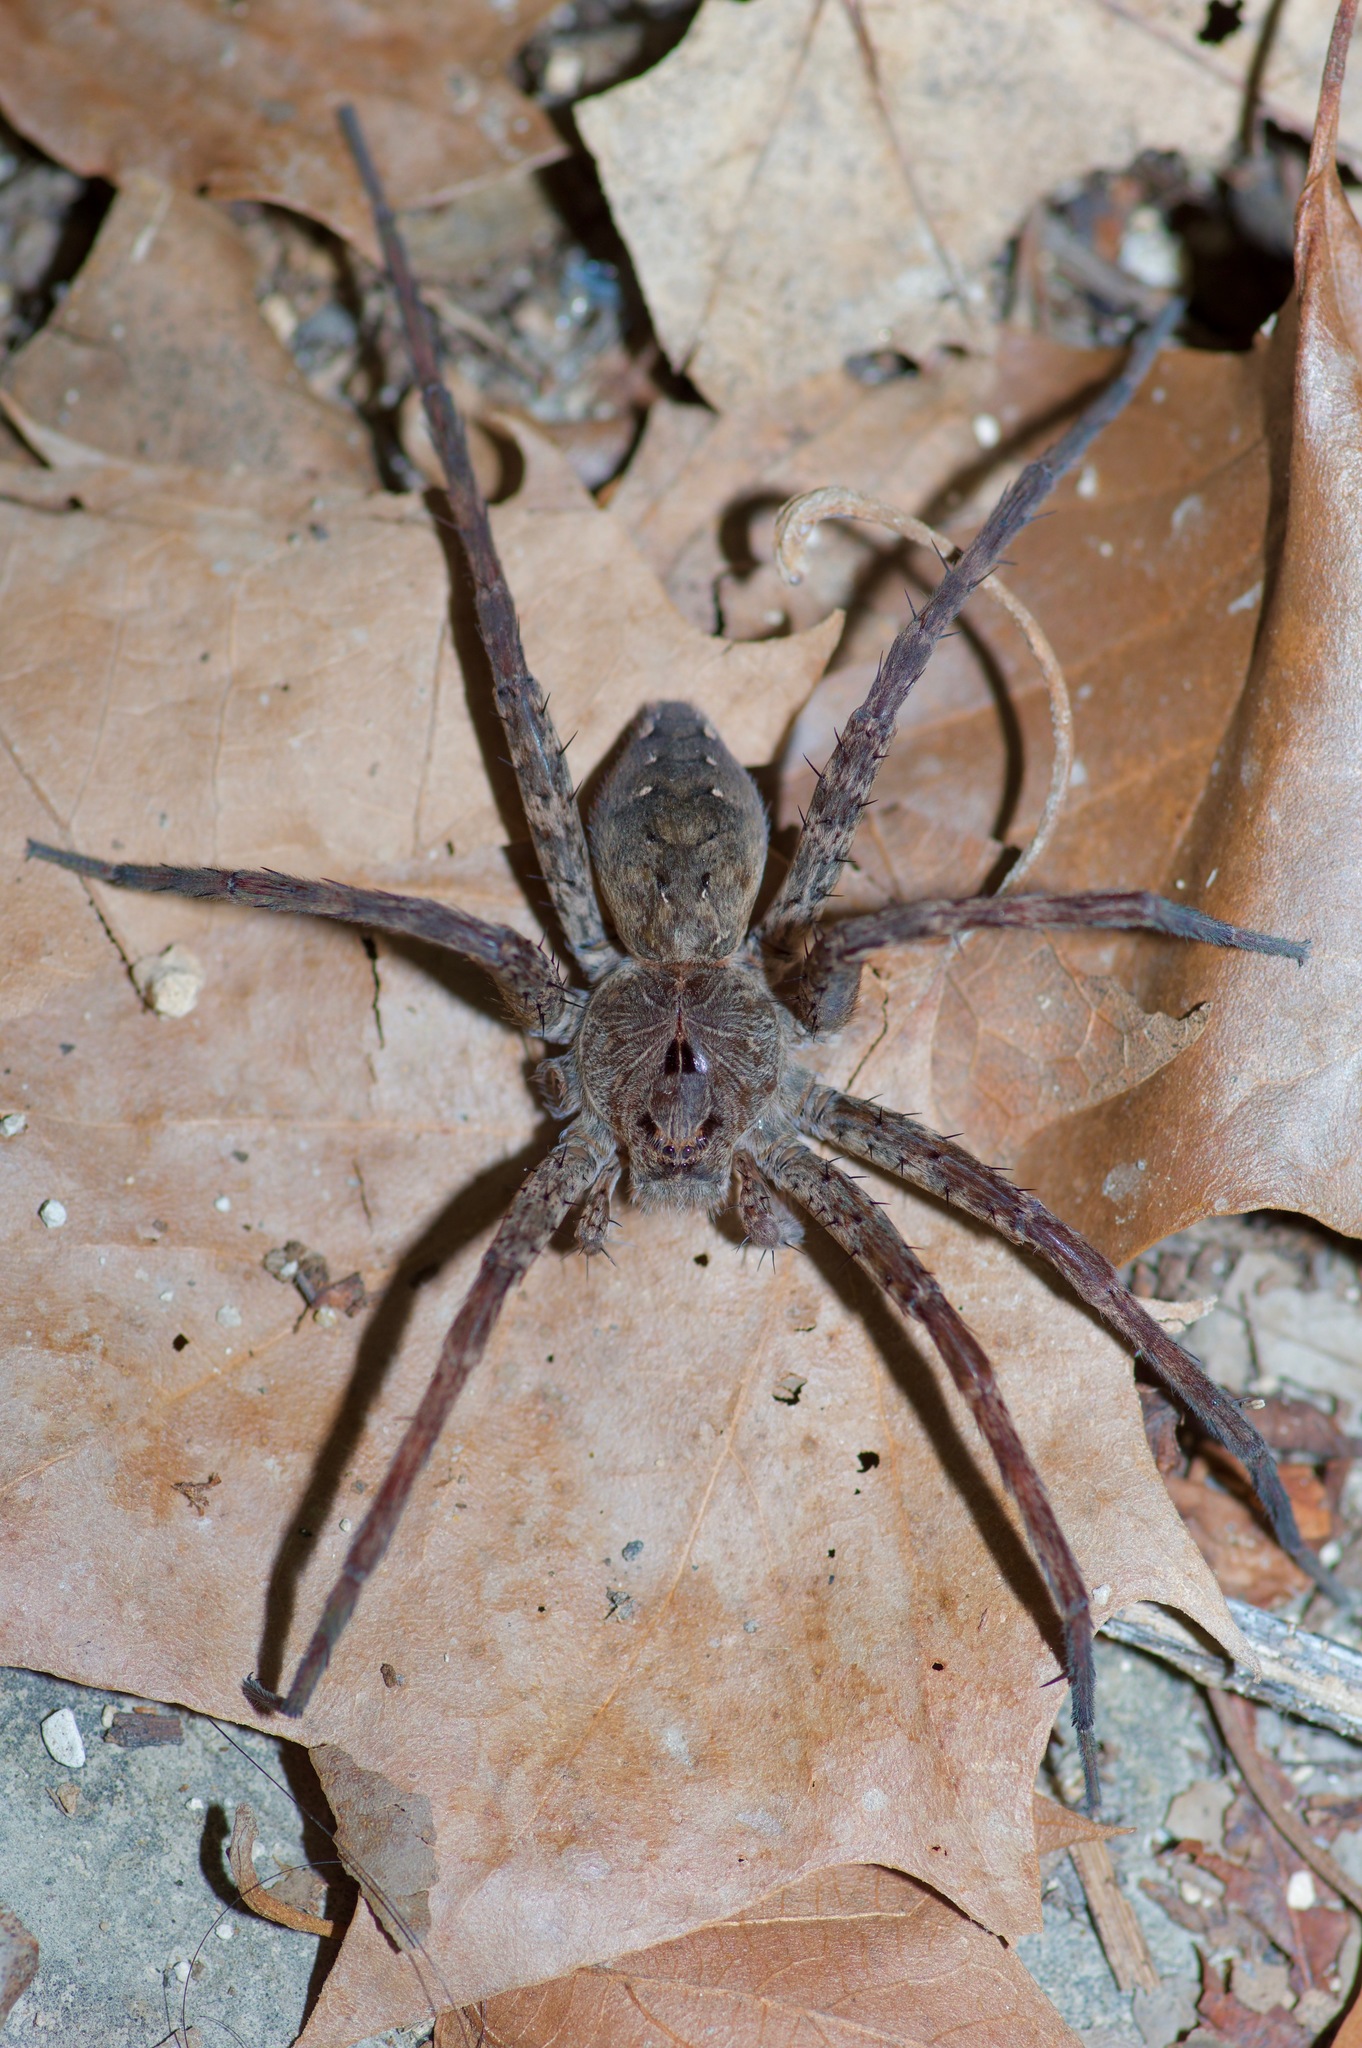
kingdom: Animalia
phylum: Arthropoda
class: Arachnida
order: Araneae
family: Pisauridae
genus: Dolomedes
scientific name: Dolomedes vittatus
